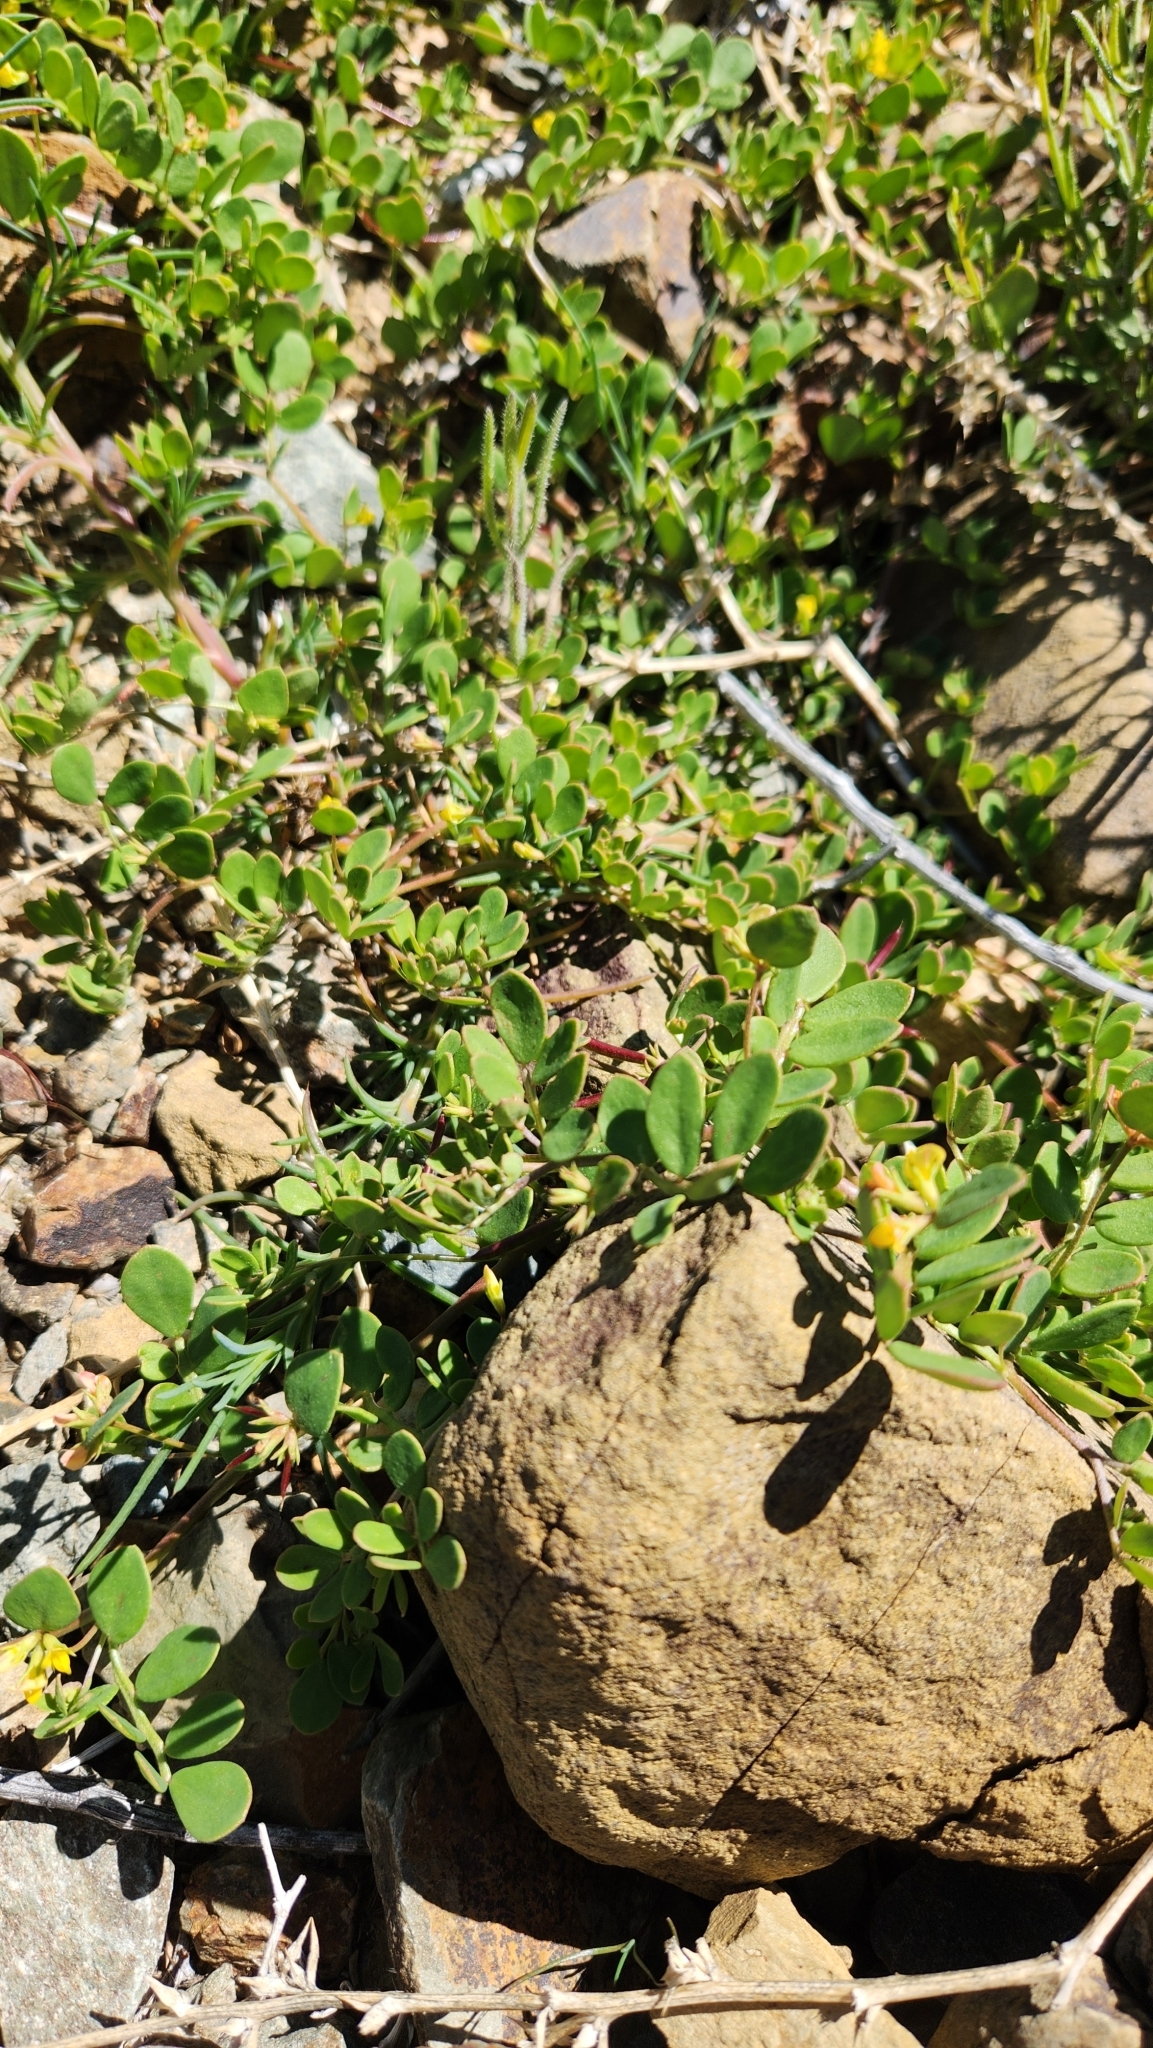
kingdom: Plantae
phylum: Tracheophyta
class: Magnoliopsida
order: Fabales
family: Fabaceae
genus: Acmispon
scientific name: Acmispon maritimus
